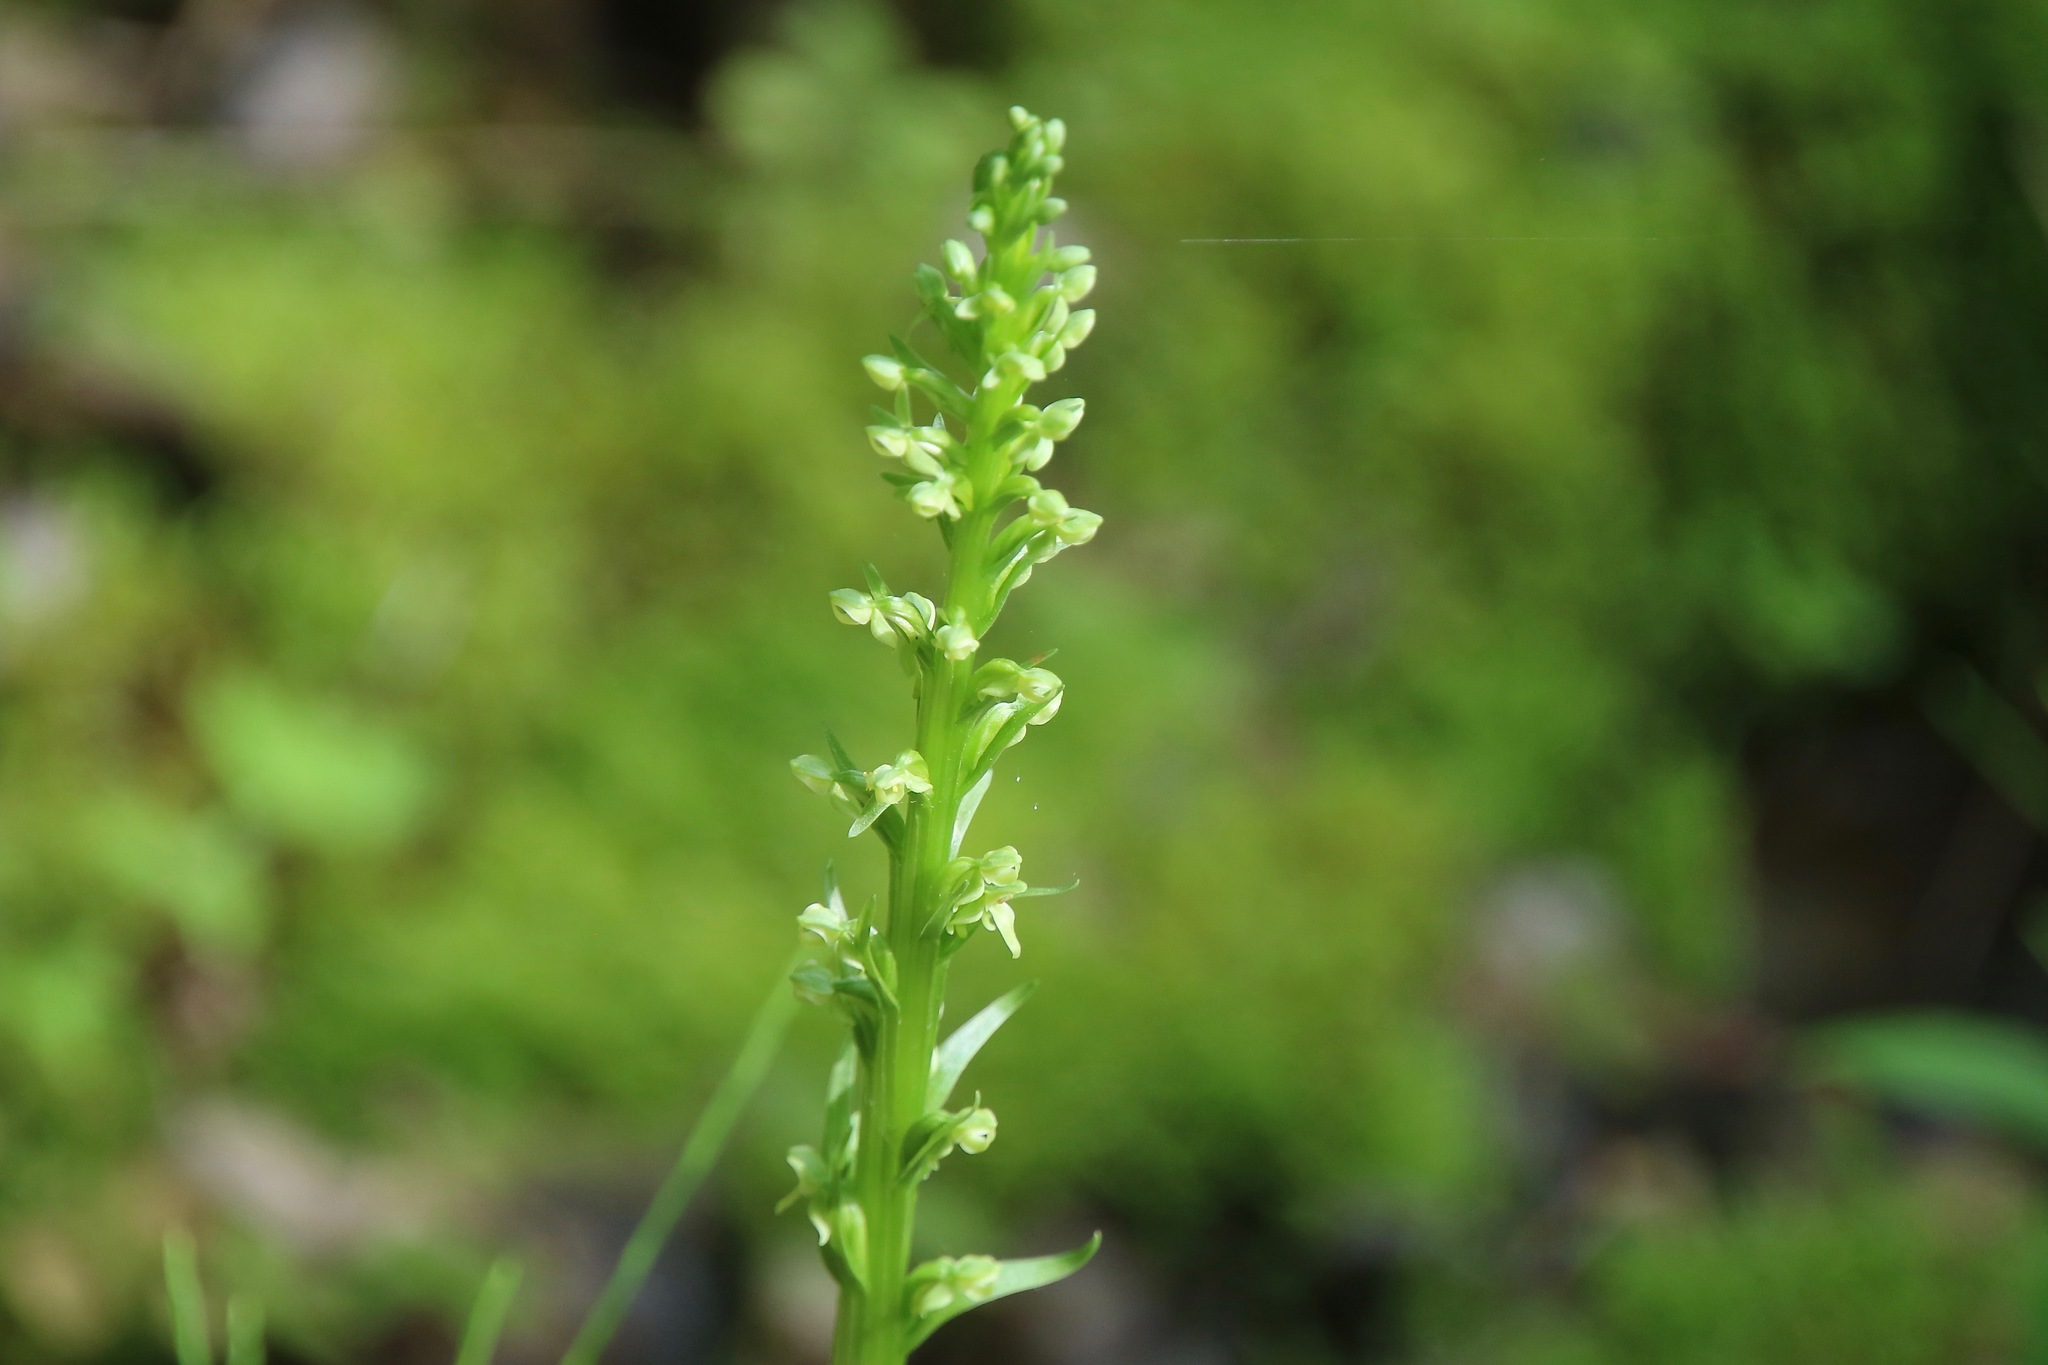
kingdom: Plantae
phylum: Tracheophyta
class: Liliopsida
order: Asparagales
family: Orchidaceae
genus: Platanthera
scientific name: Platanthera huronensis
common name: Fragrant green orchid
